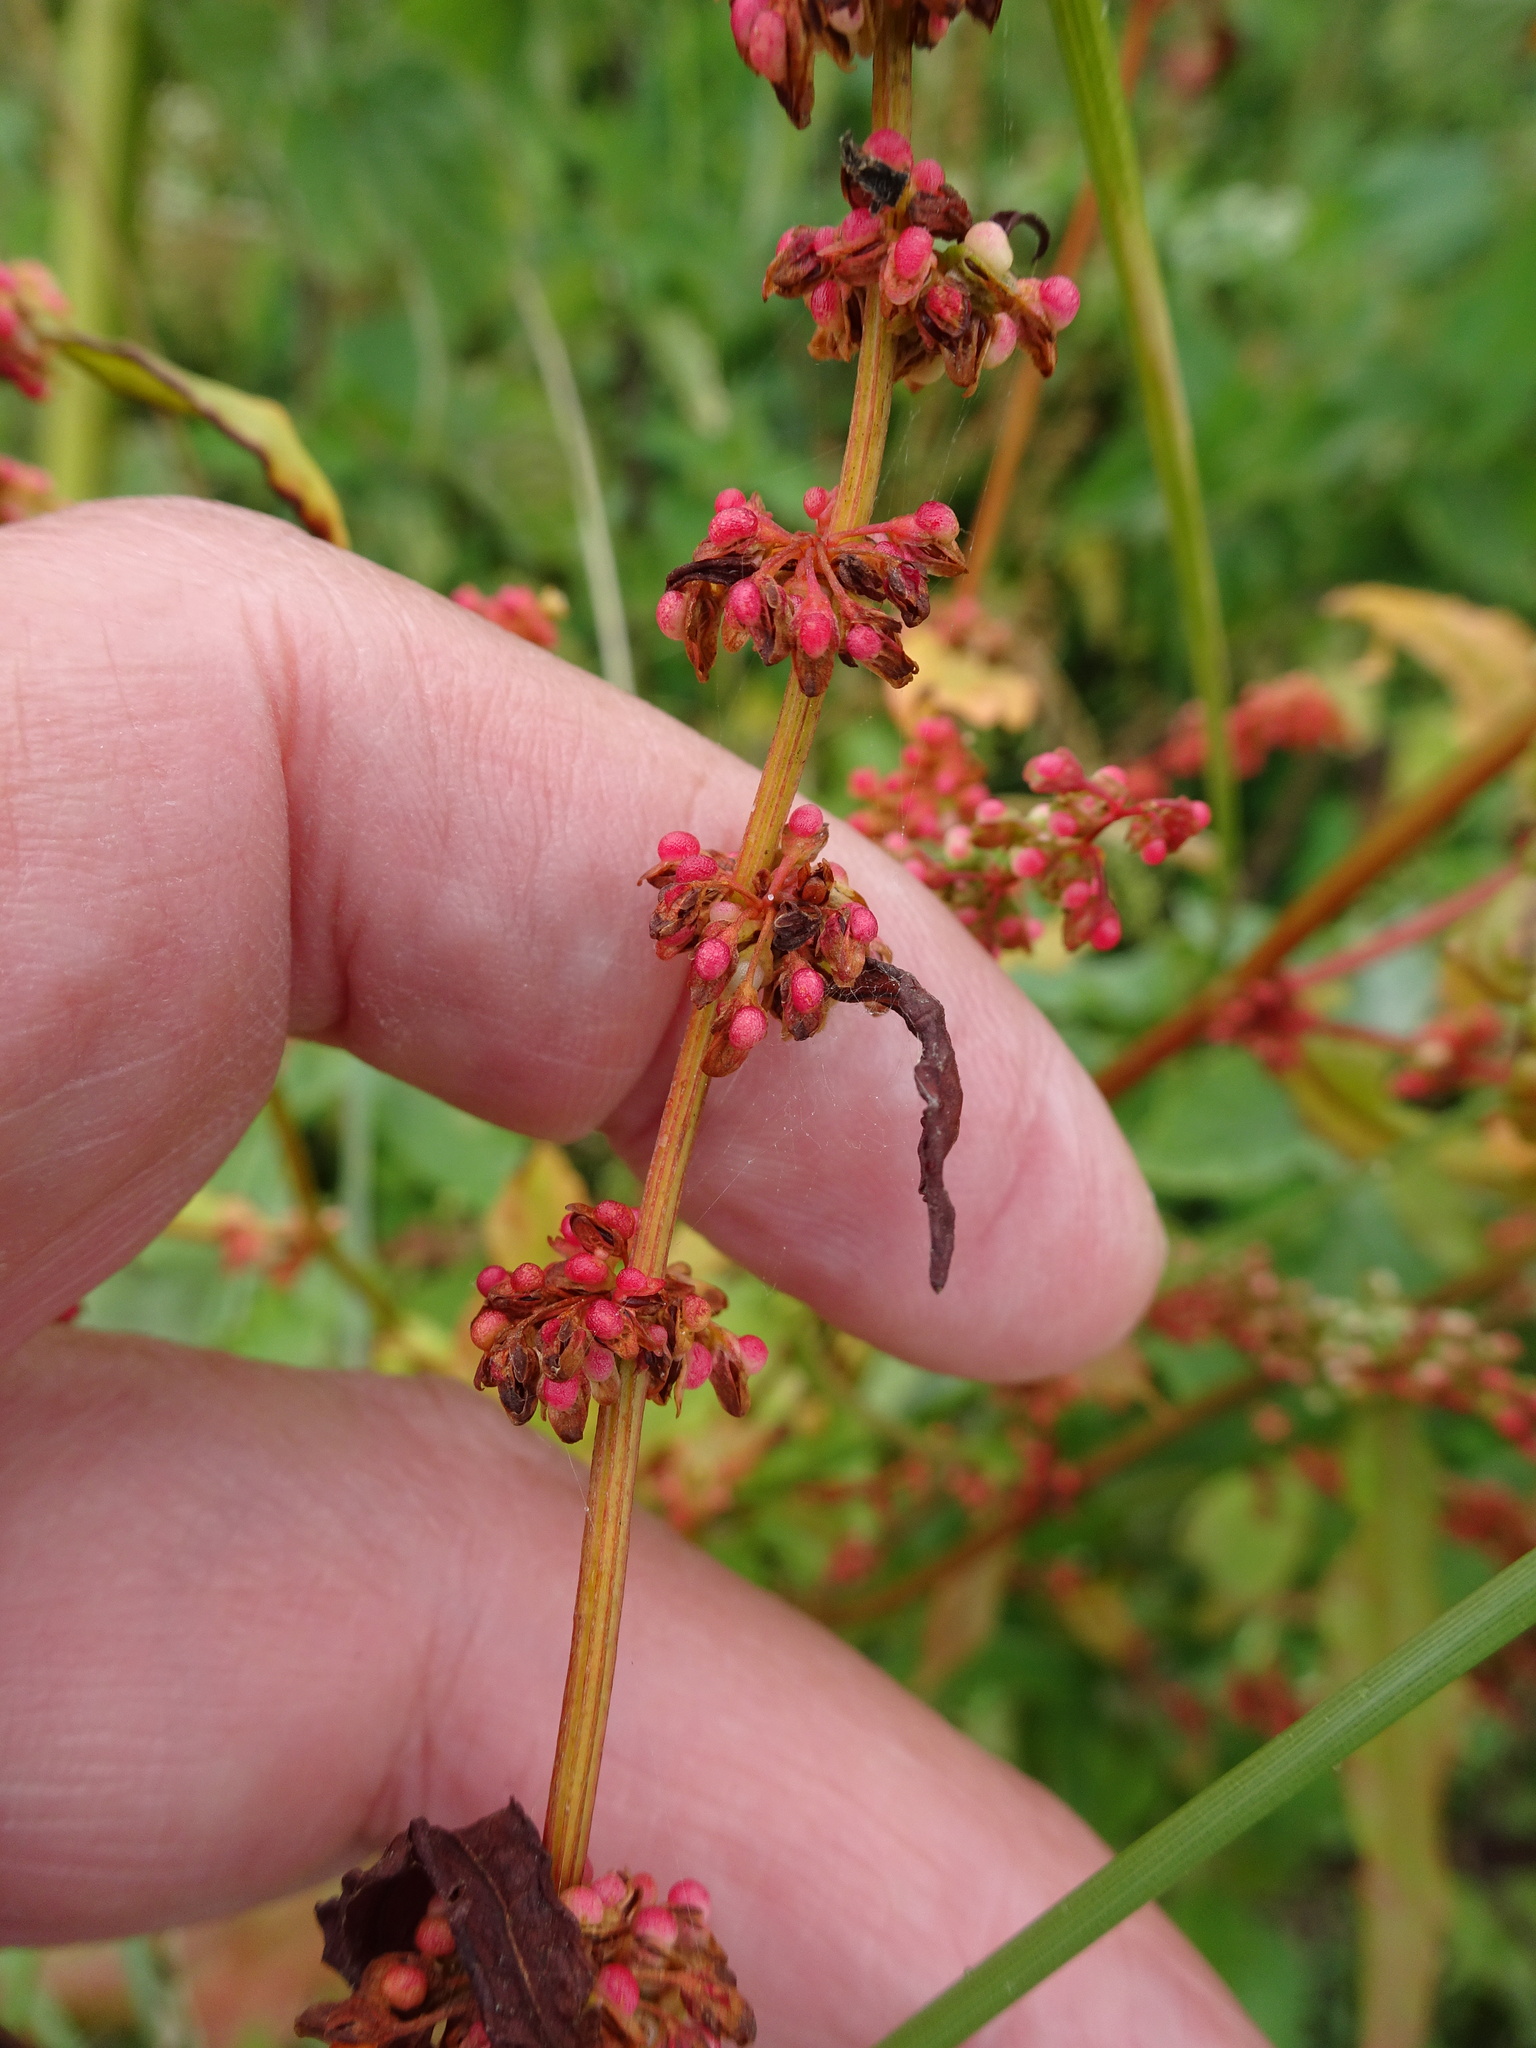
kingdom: Plantae
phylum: Tracheophyta
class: Magnoliopsida
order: Caryophyllales
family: Polygonaceae
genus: Rumex
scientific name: Rumex sanguineus
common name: Wood dock
